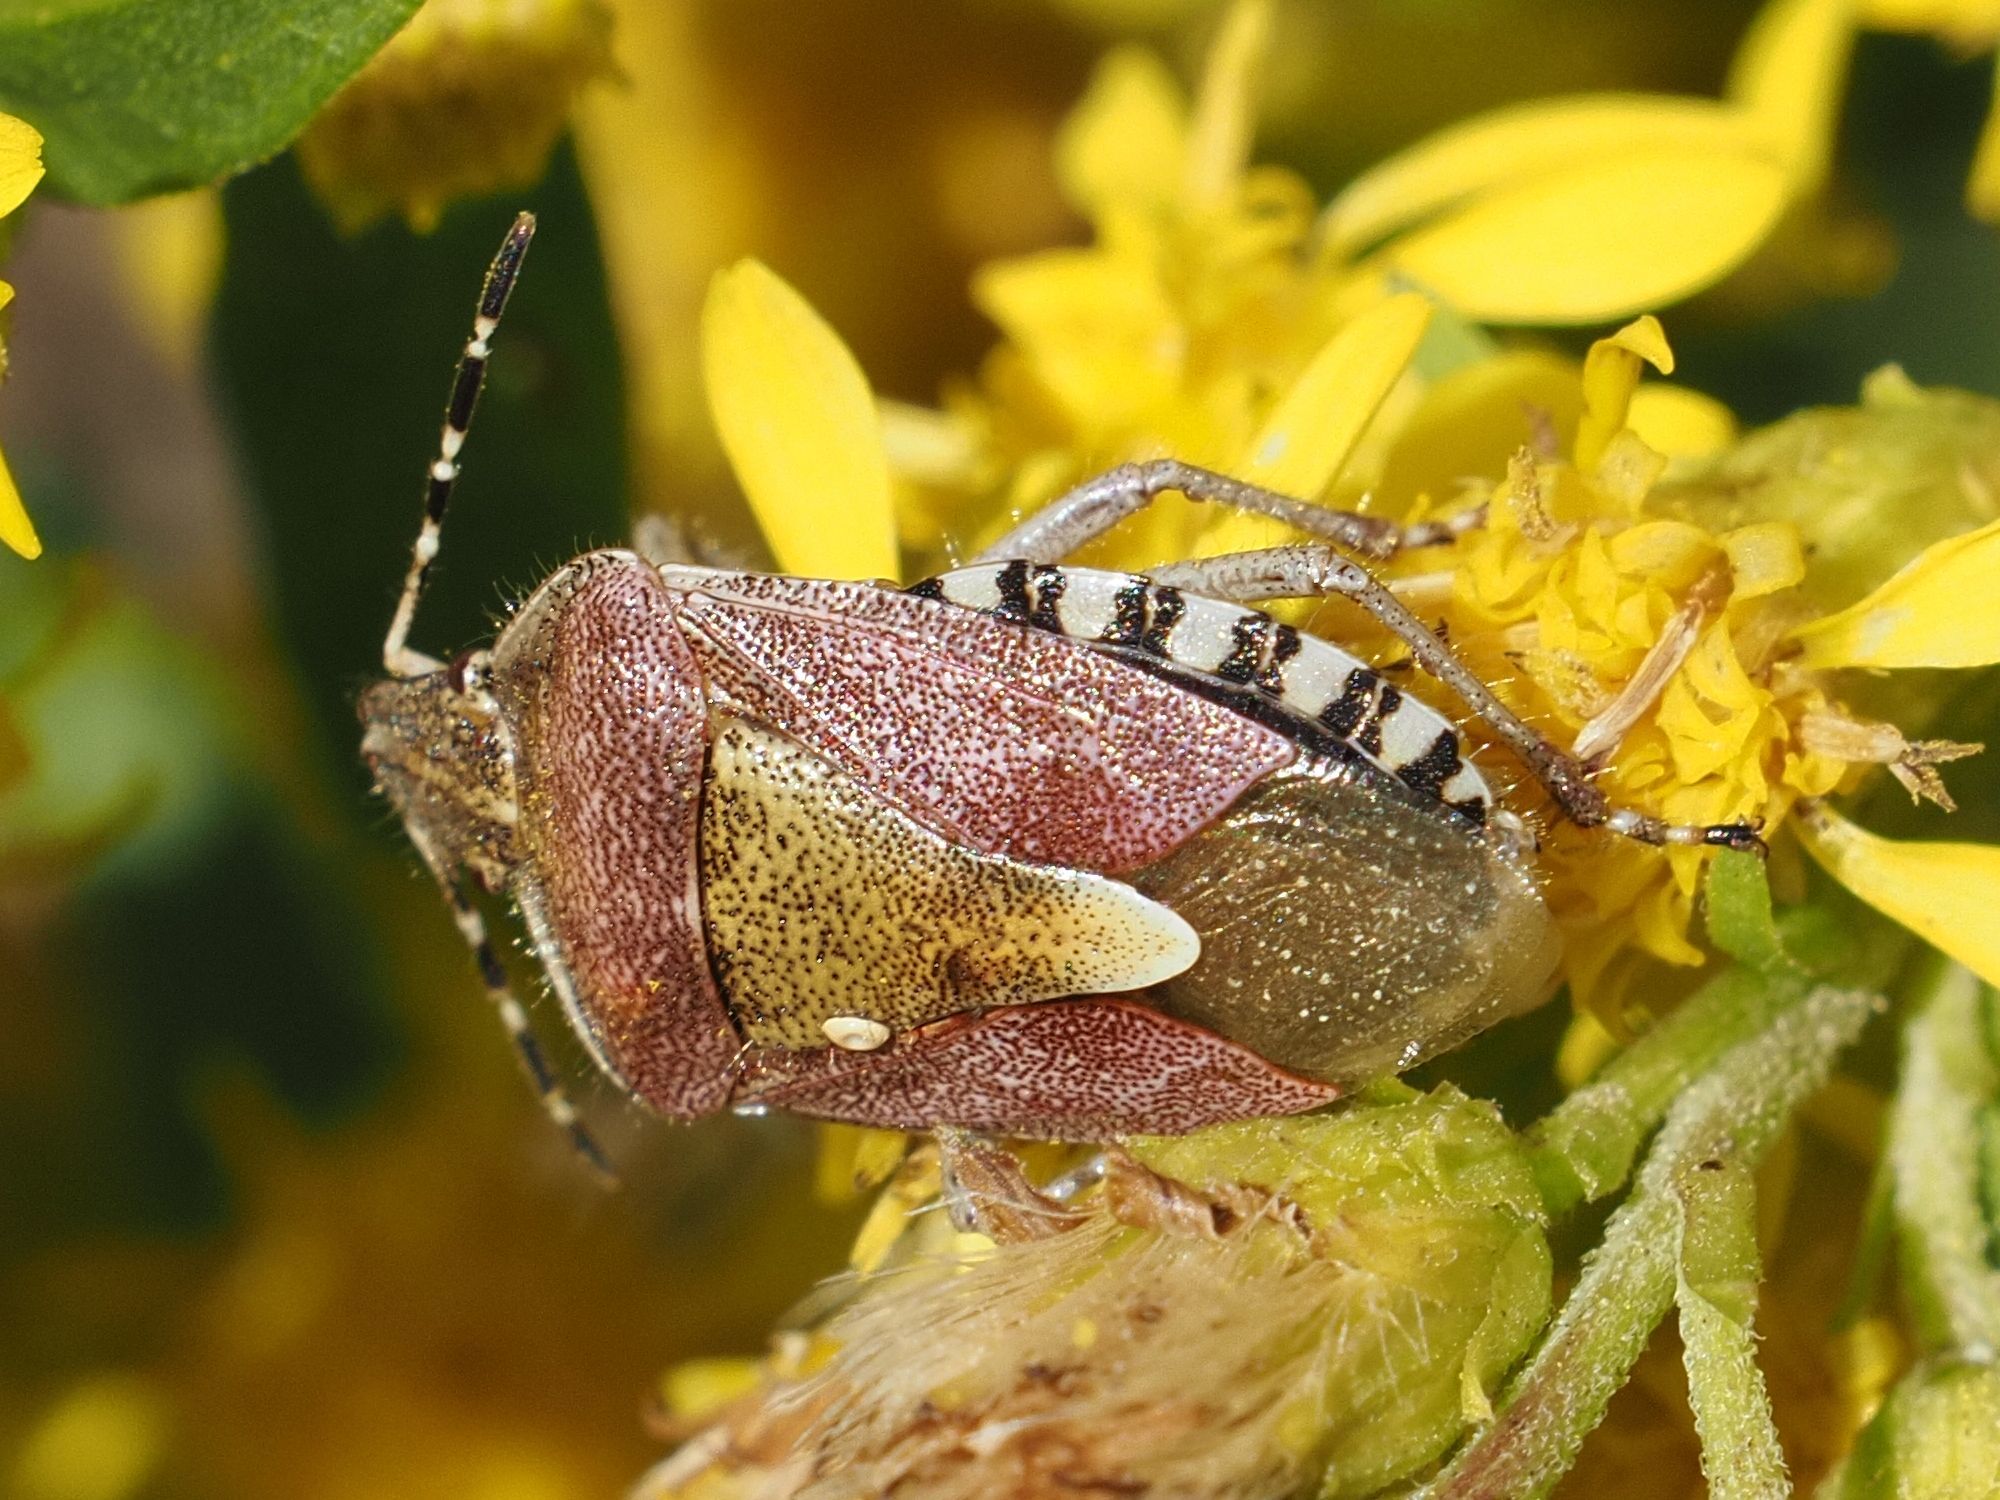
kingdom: Animalia
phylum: Arthropoda
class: Insecta
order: Hemiptera
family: Pentatomidae
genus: Dolycoris
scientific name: Dolycoris baccarum
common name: Sloe bug
